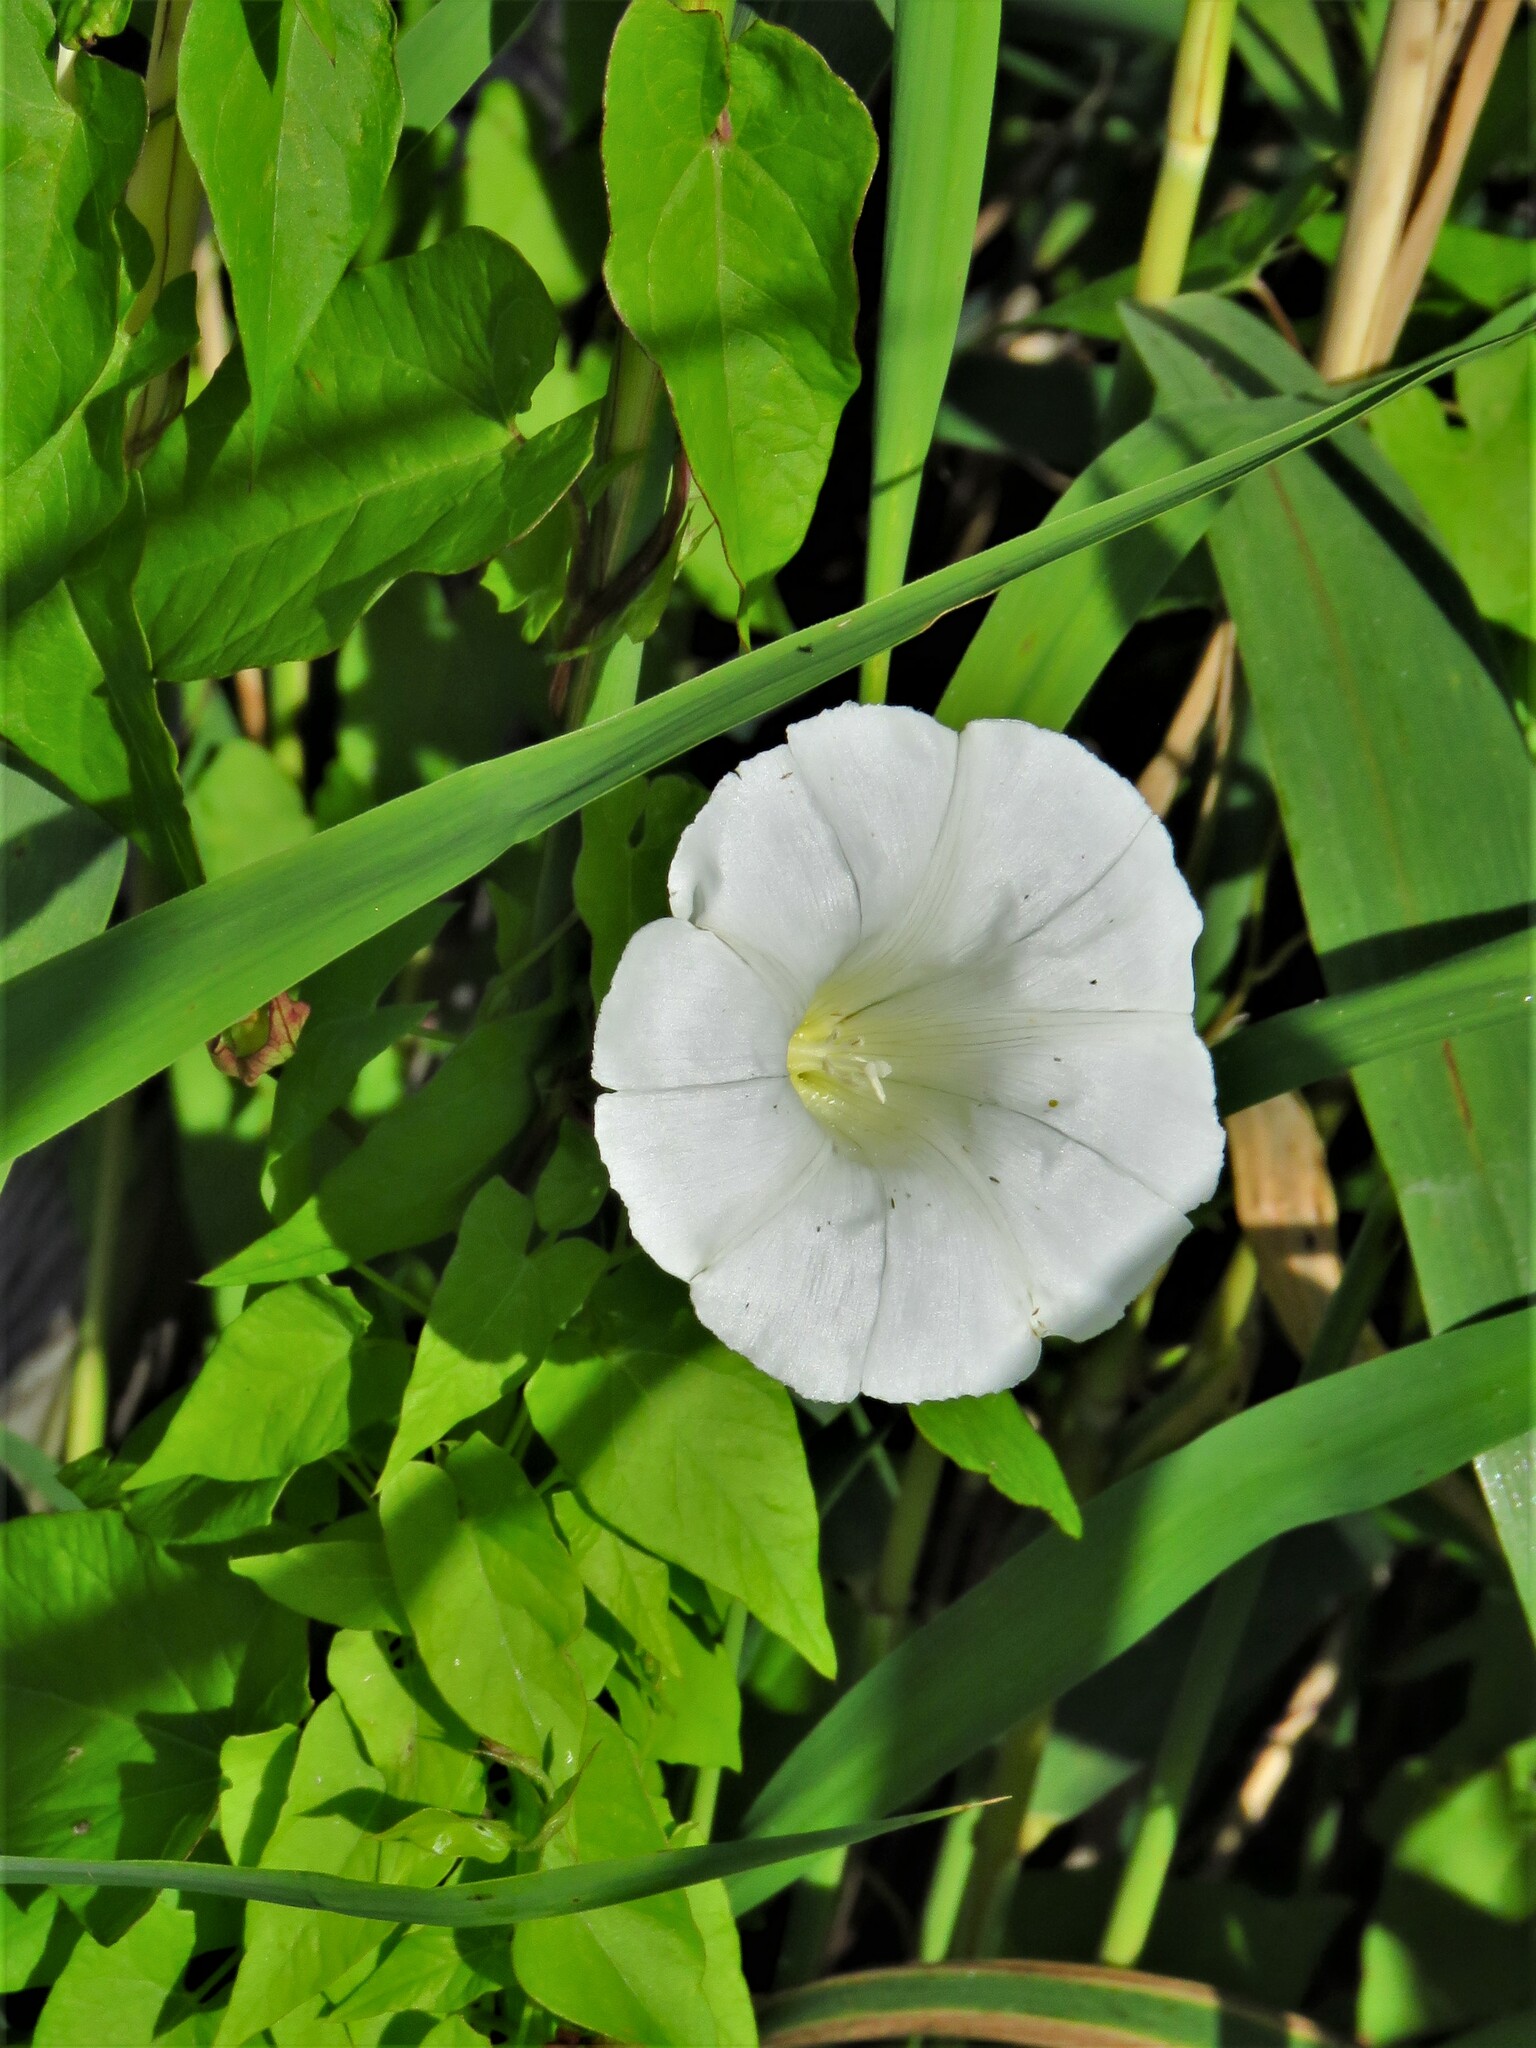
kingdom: Plantae
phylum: Tracheophyta
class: Magnoliopsida
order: Solanales
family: Convolvulaceae
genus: Calystegia
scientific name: Calystegia sepium
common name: Hedge bindweed
